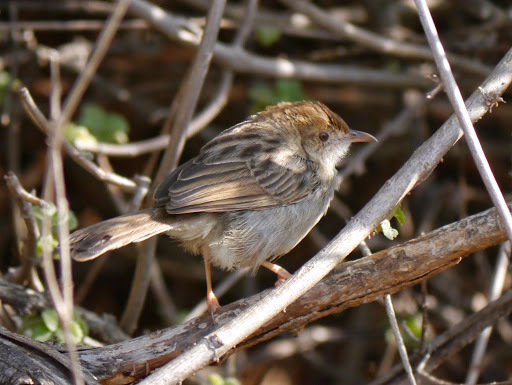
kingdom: Animalia
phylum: Chordata
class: Aves
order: Passeriformes
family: Cisticolidae
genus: Cisticola
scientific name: Cisticola chiniana
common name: Rattling cisticola
